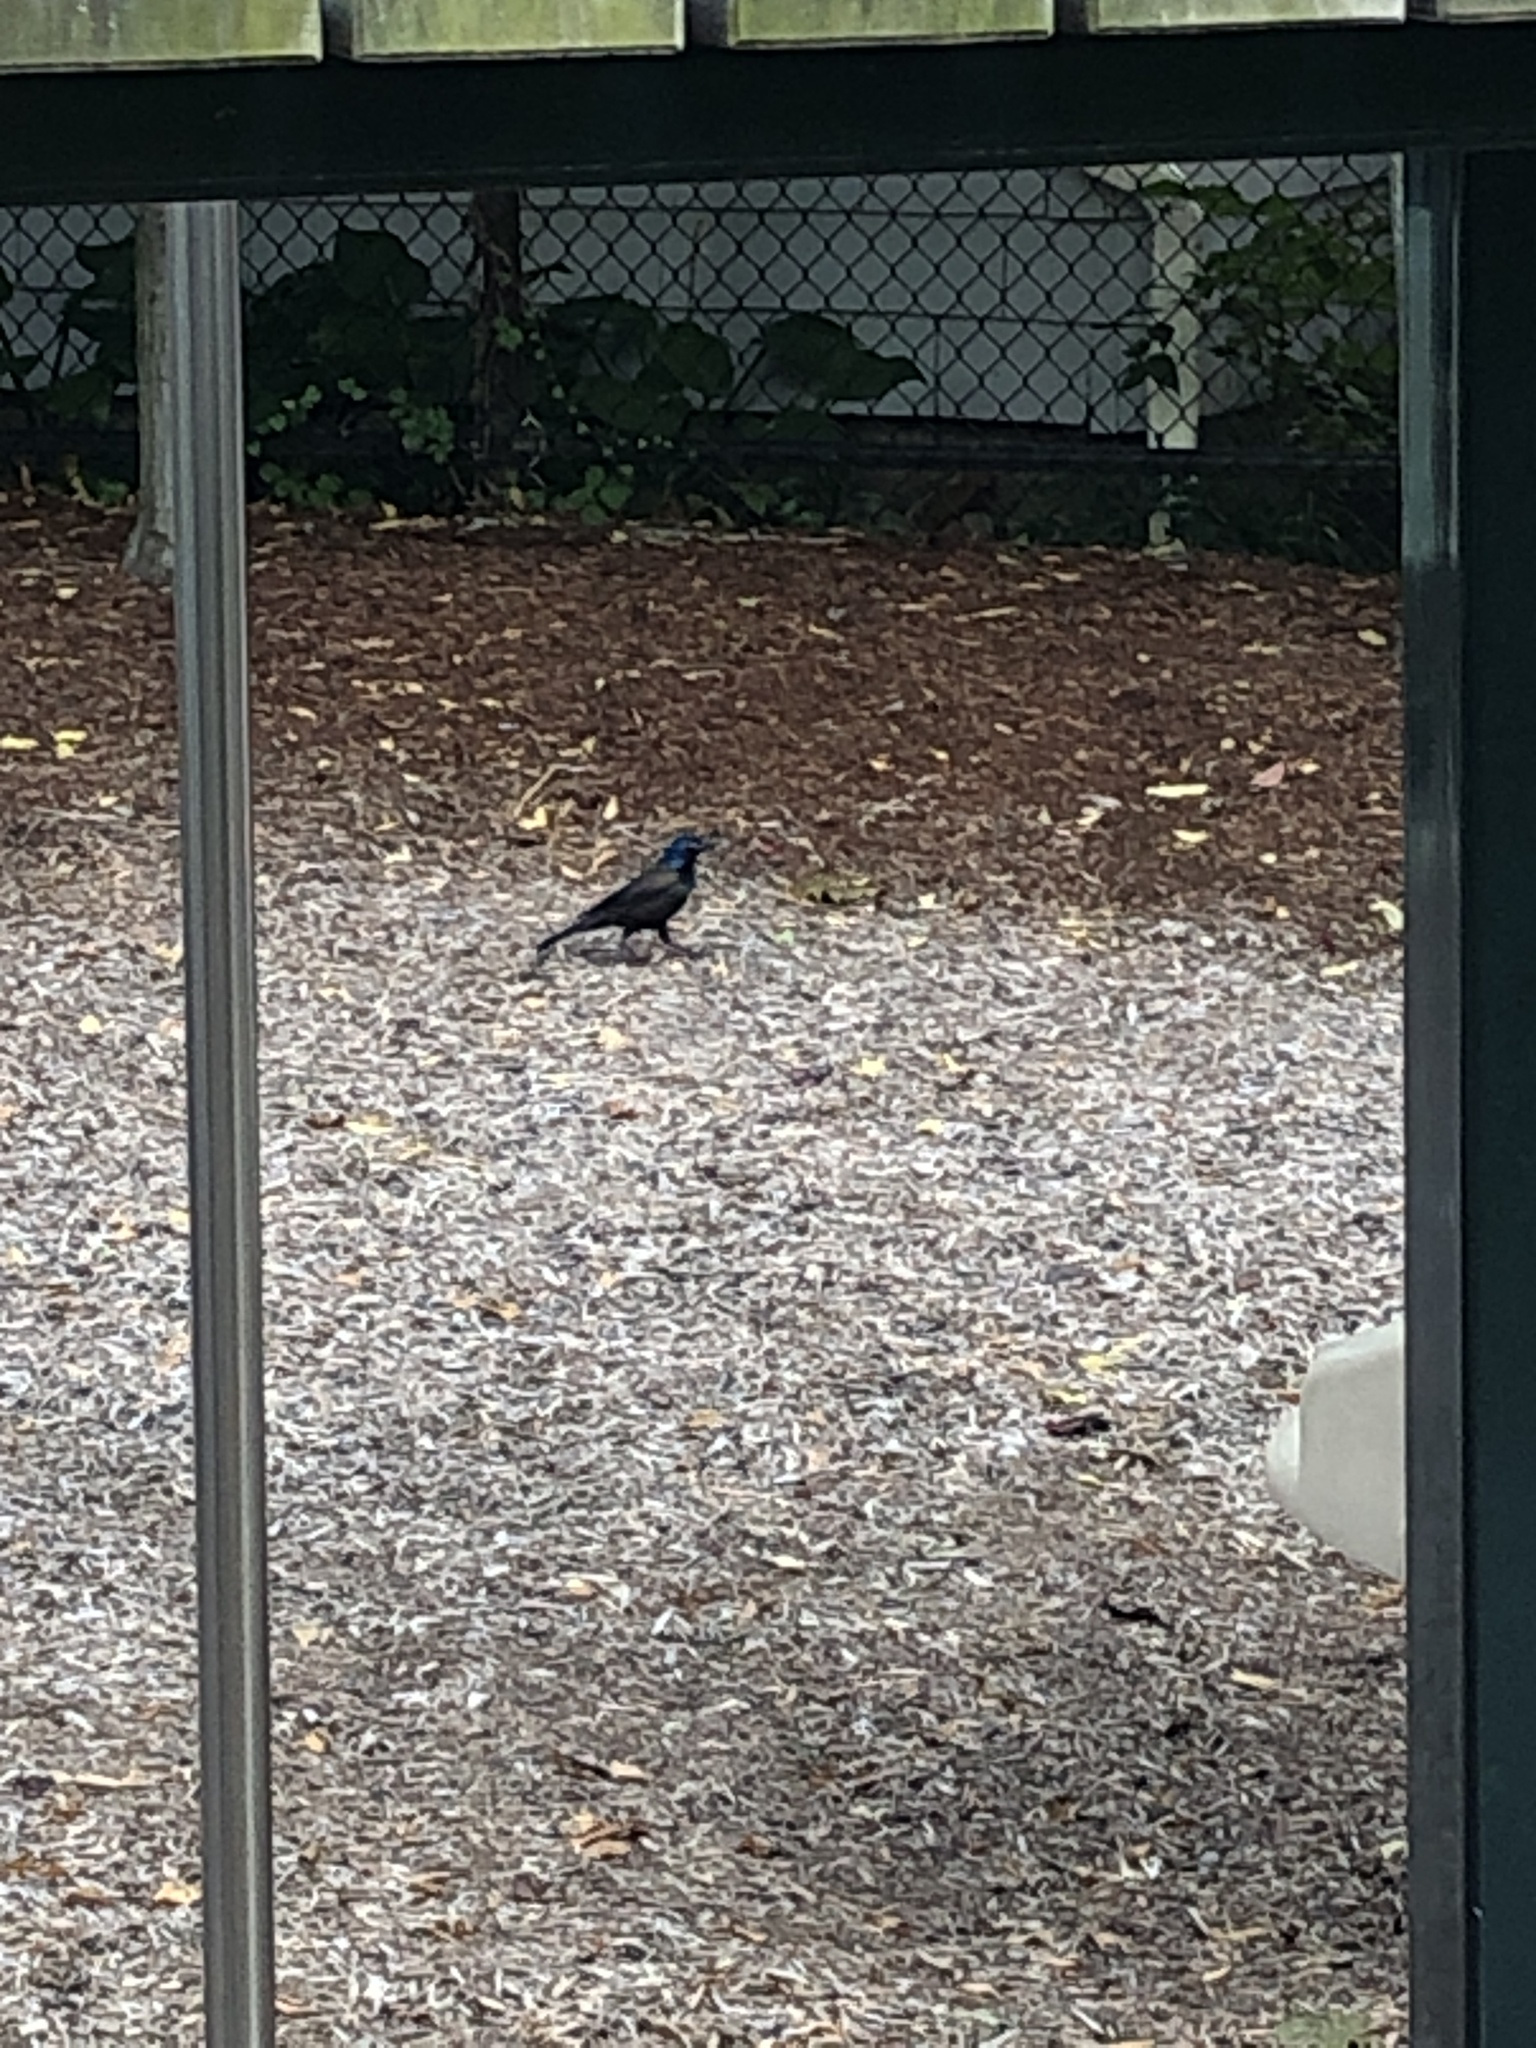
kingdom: Animalia
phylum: Chordata
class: Aves
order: Passeriformes
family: Icteridae
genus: Quiscalus
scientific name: Quiscalus quiscula
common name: Common grackle
